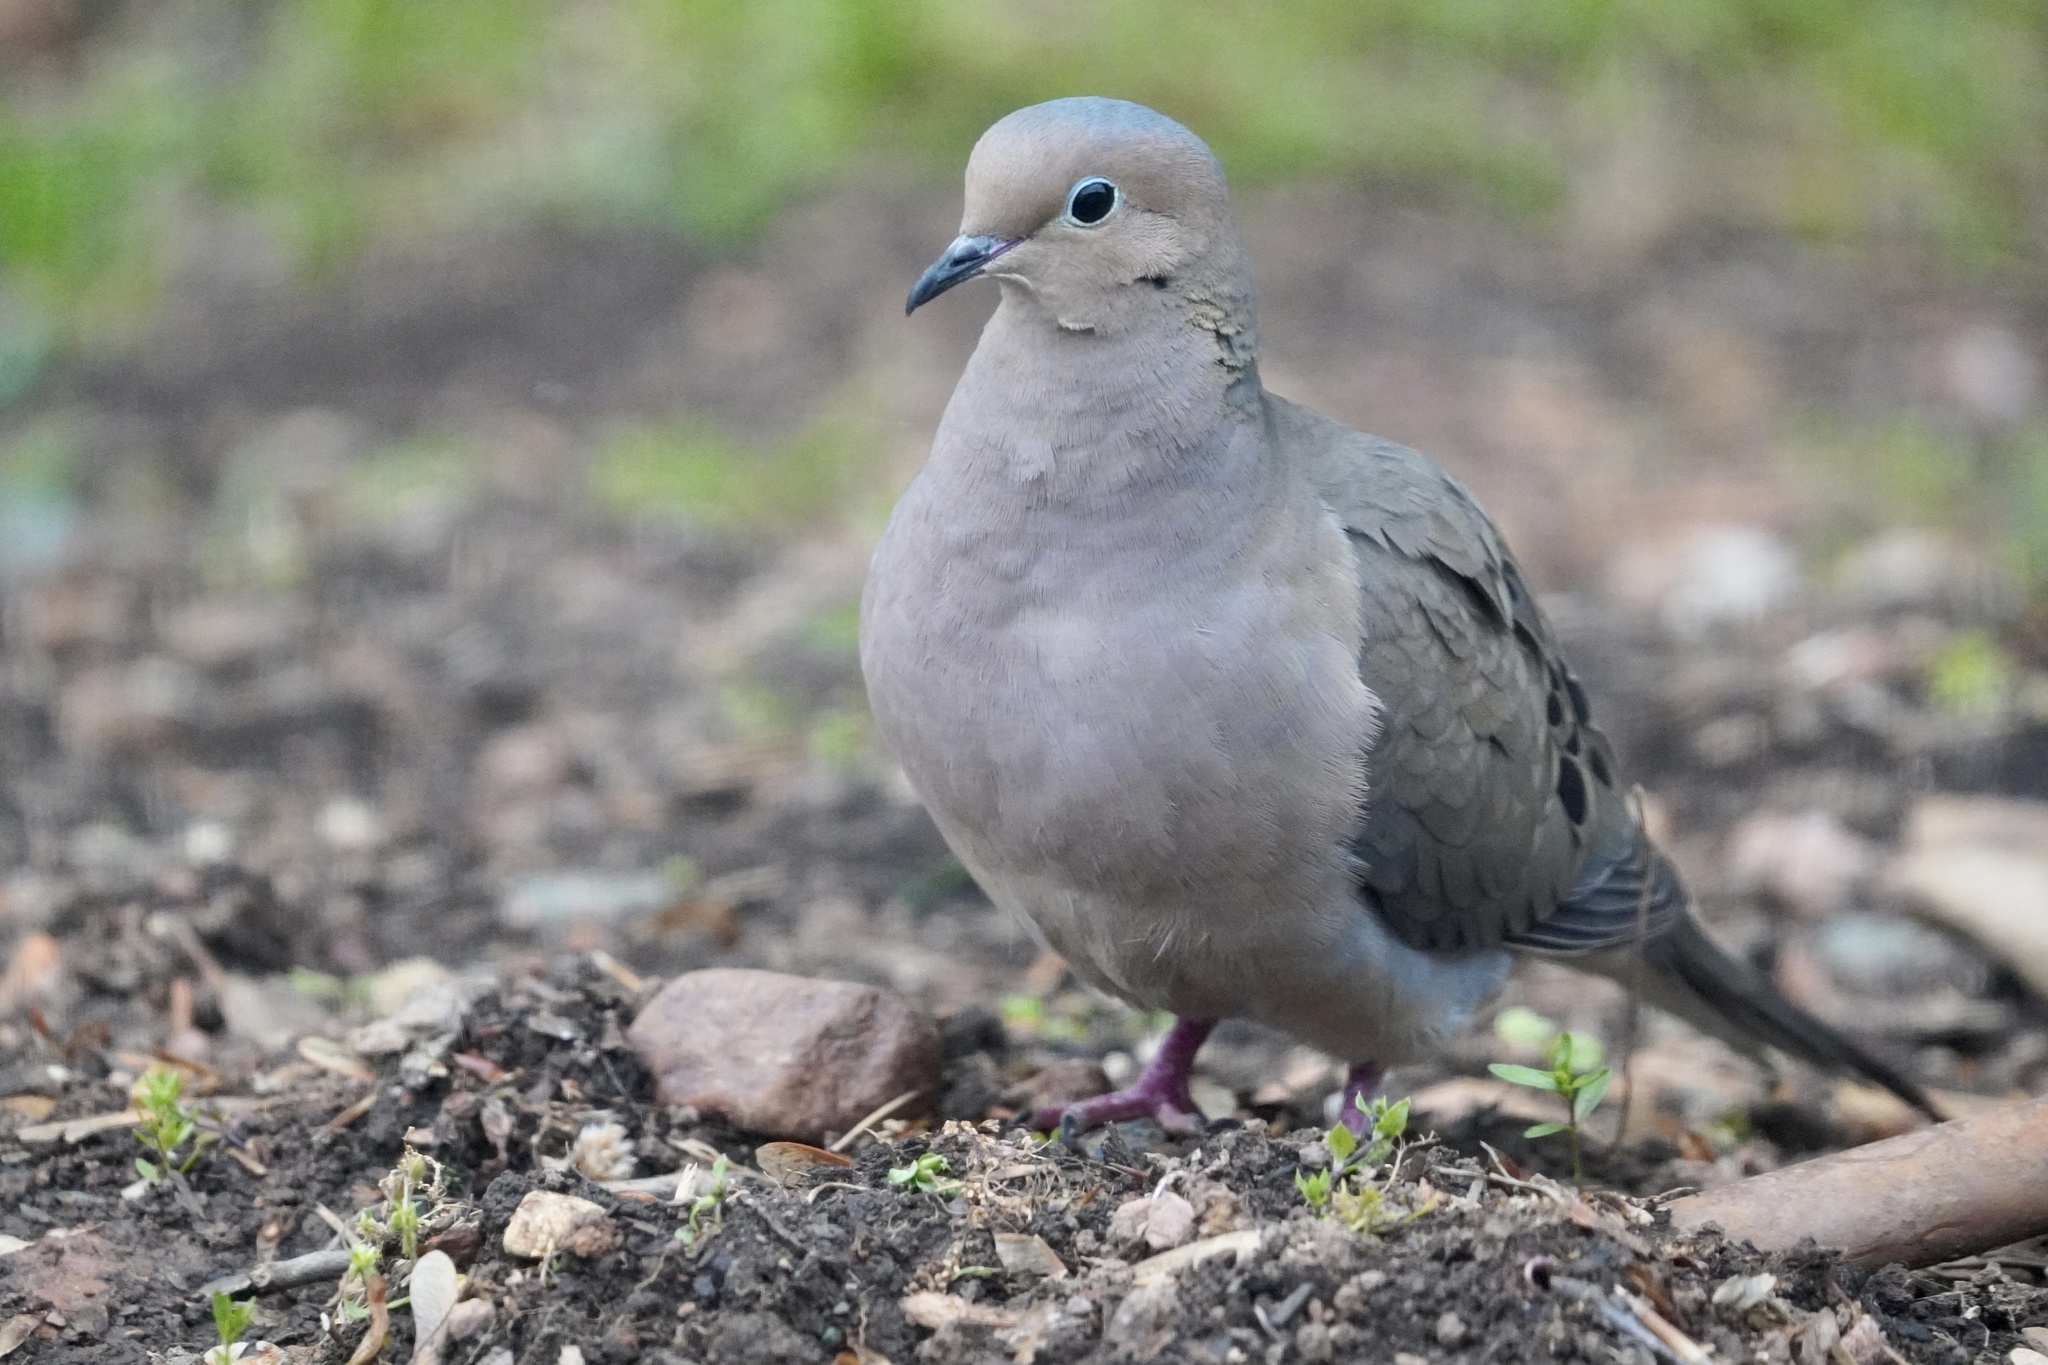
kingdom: Animalia
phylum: Chordata
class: Aves
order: Columbiformes
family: Columbidae
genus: Zenaida
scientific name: Zenaida macroura
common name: Mourning dove
